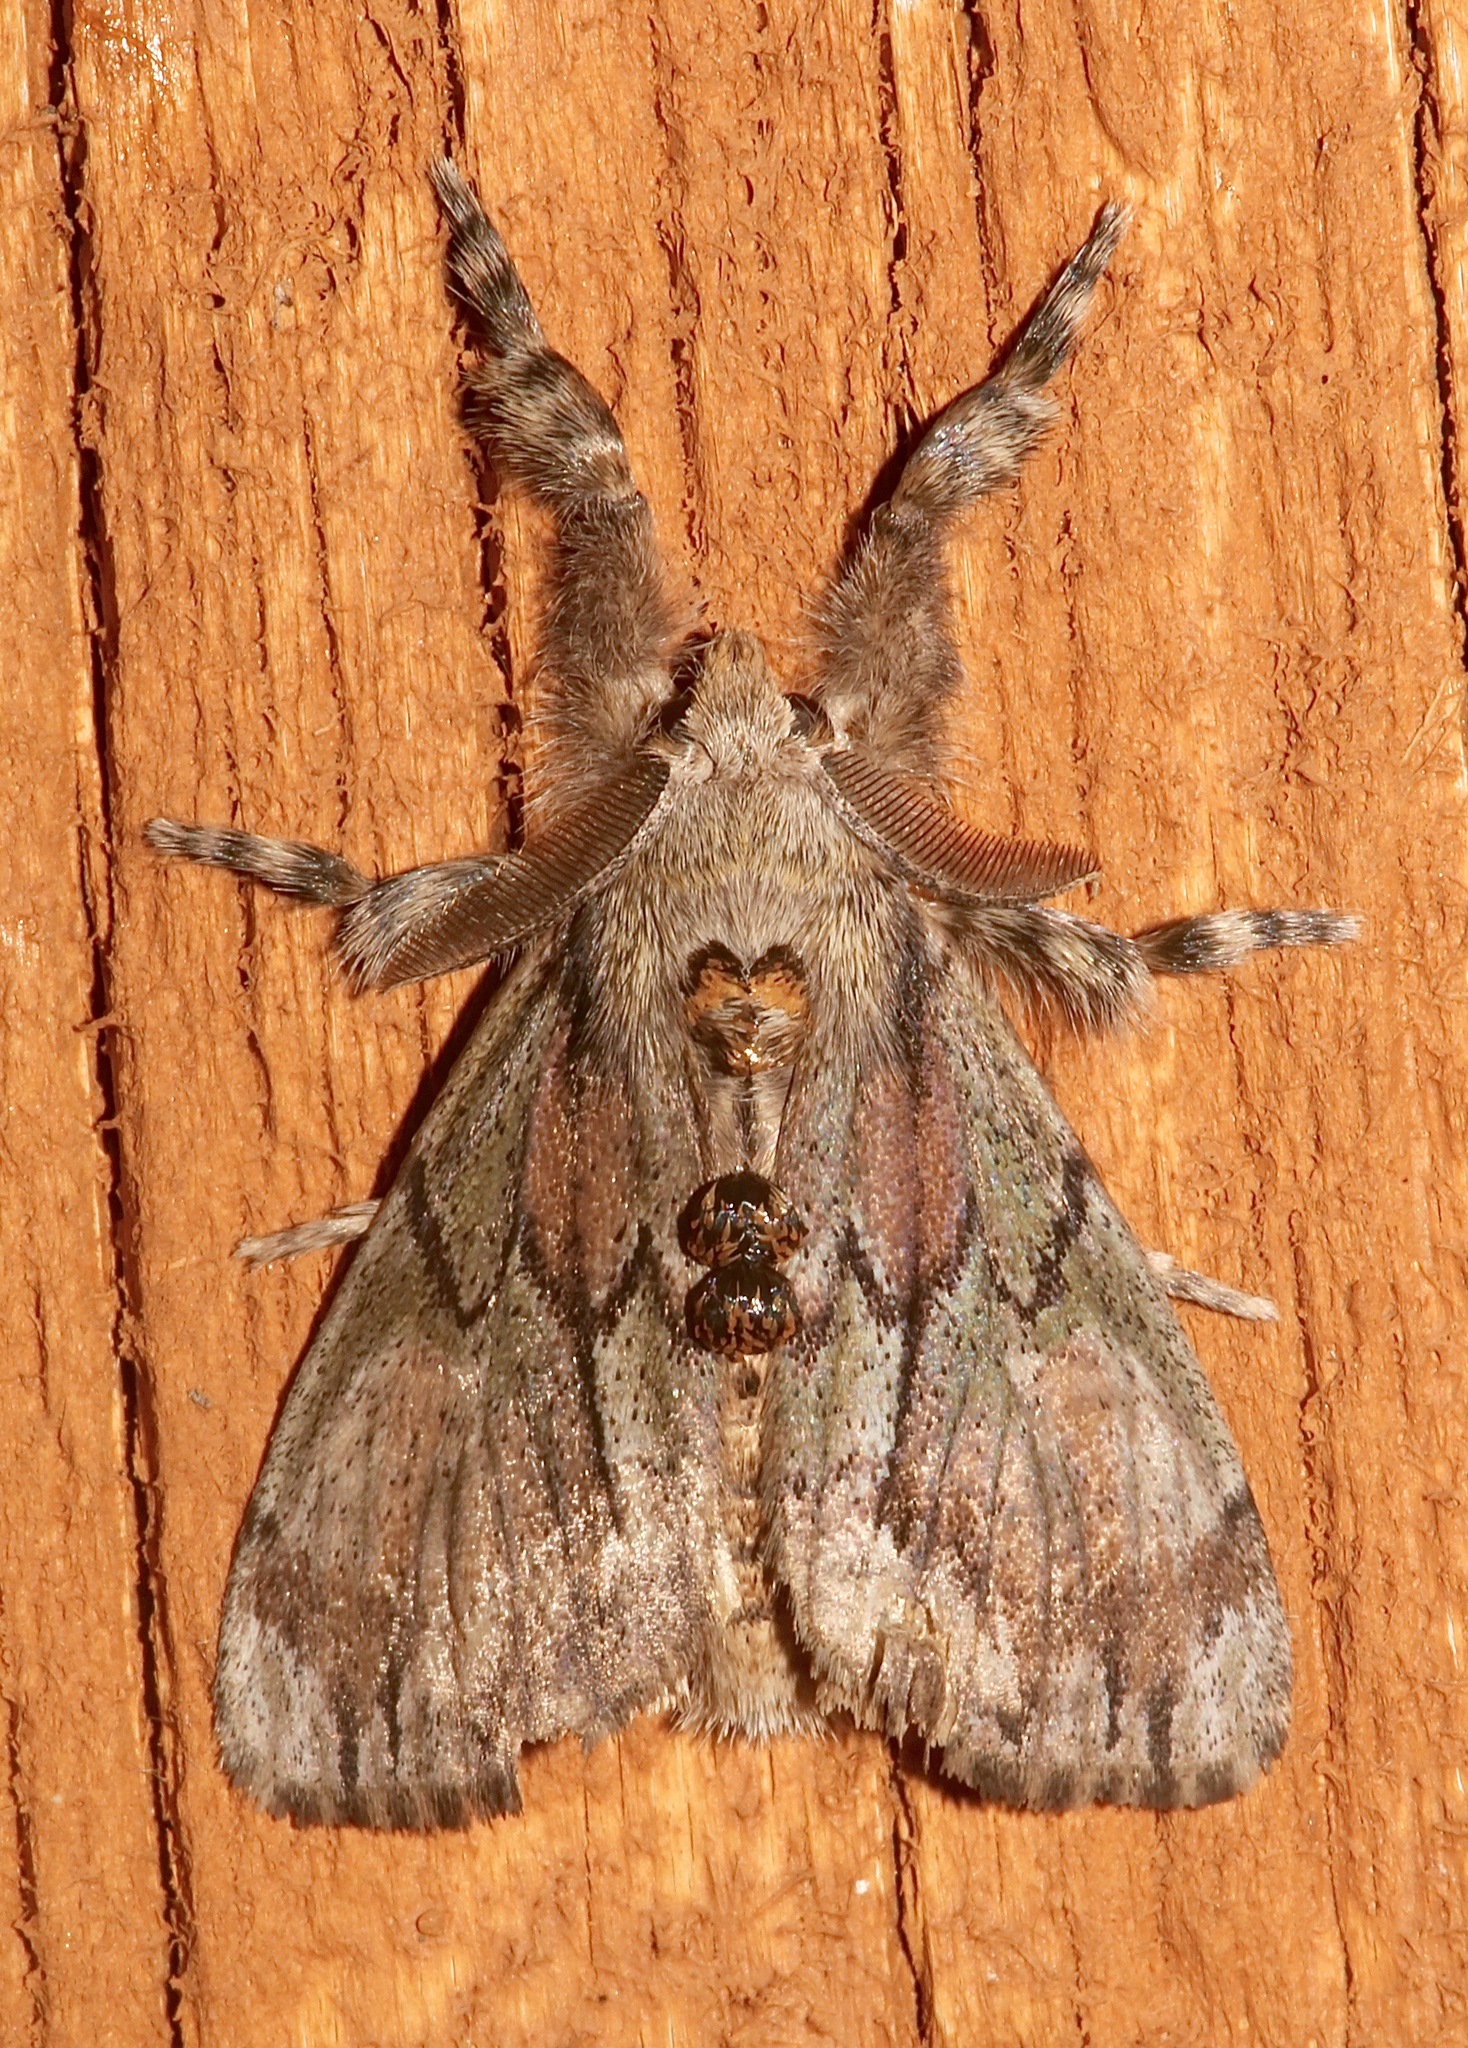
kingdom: Animalia
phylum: Arthropoda
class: Insecta
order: Lepidoptera
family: Erebidae
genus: Dasychira
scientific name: Dasychira dominickaria
